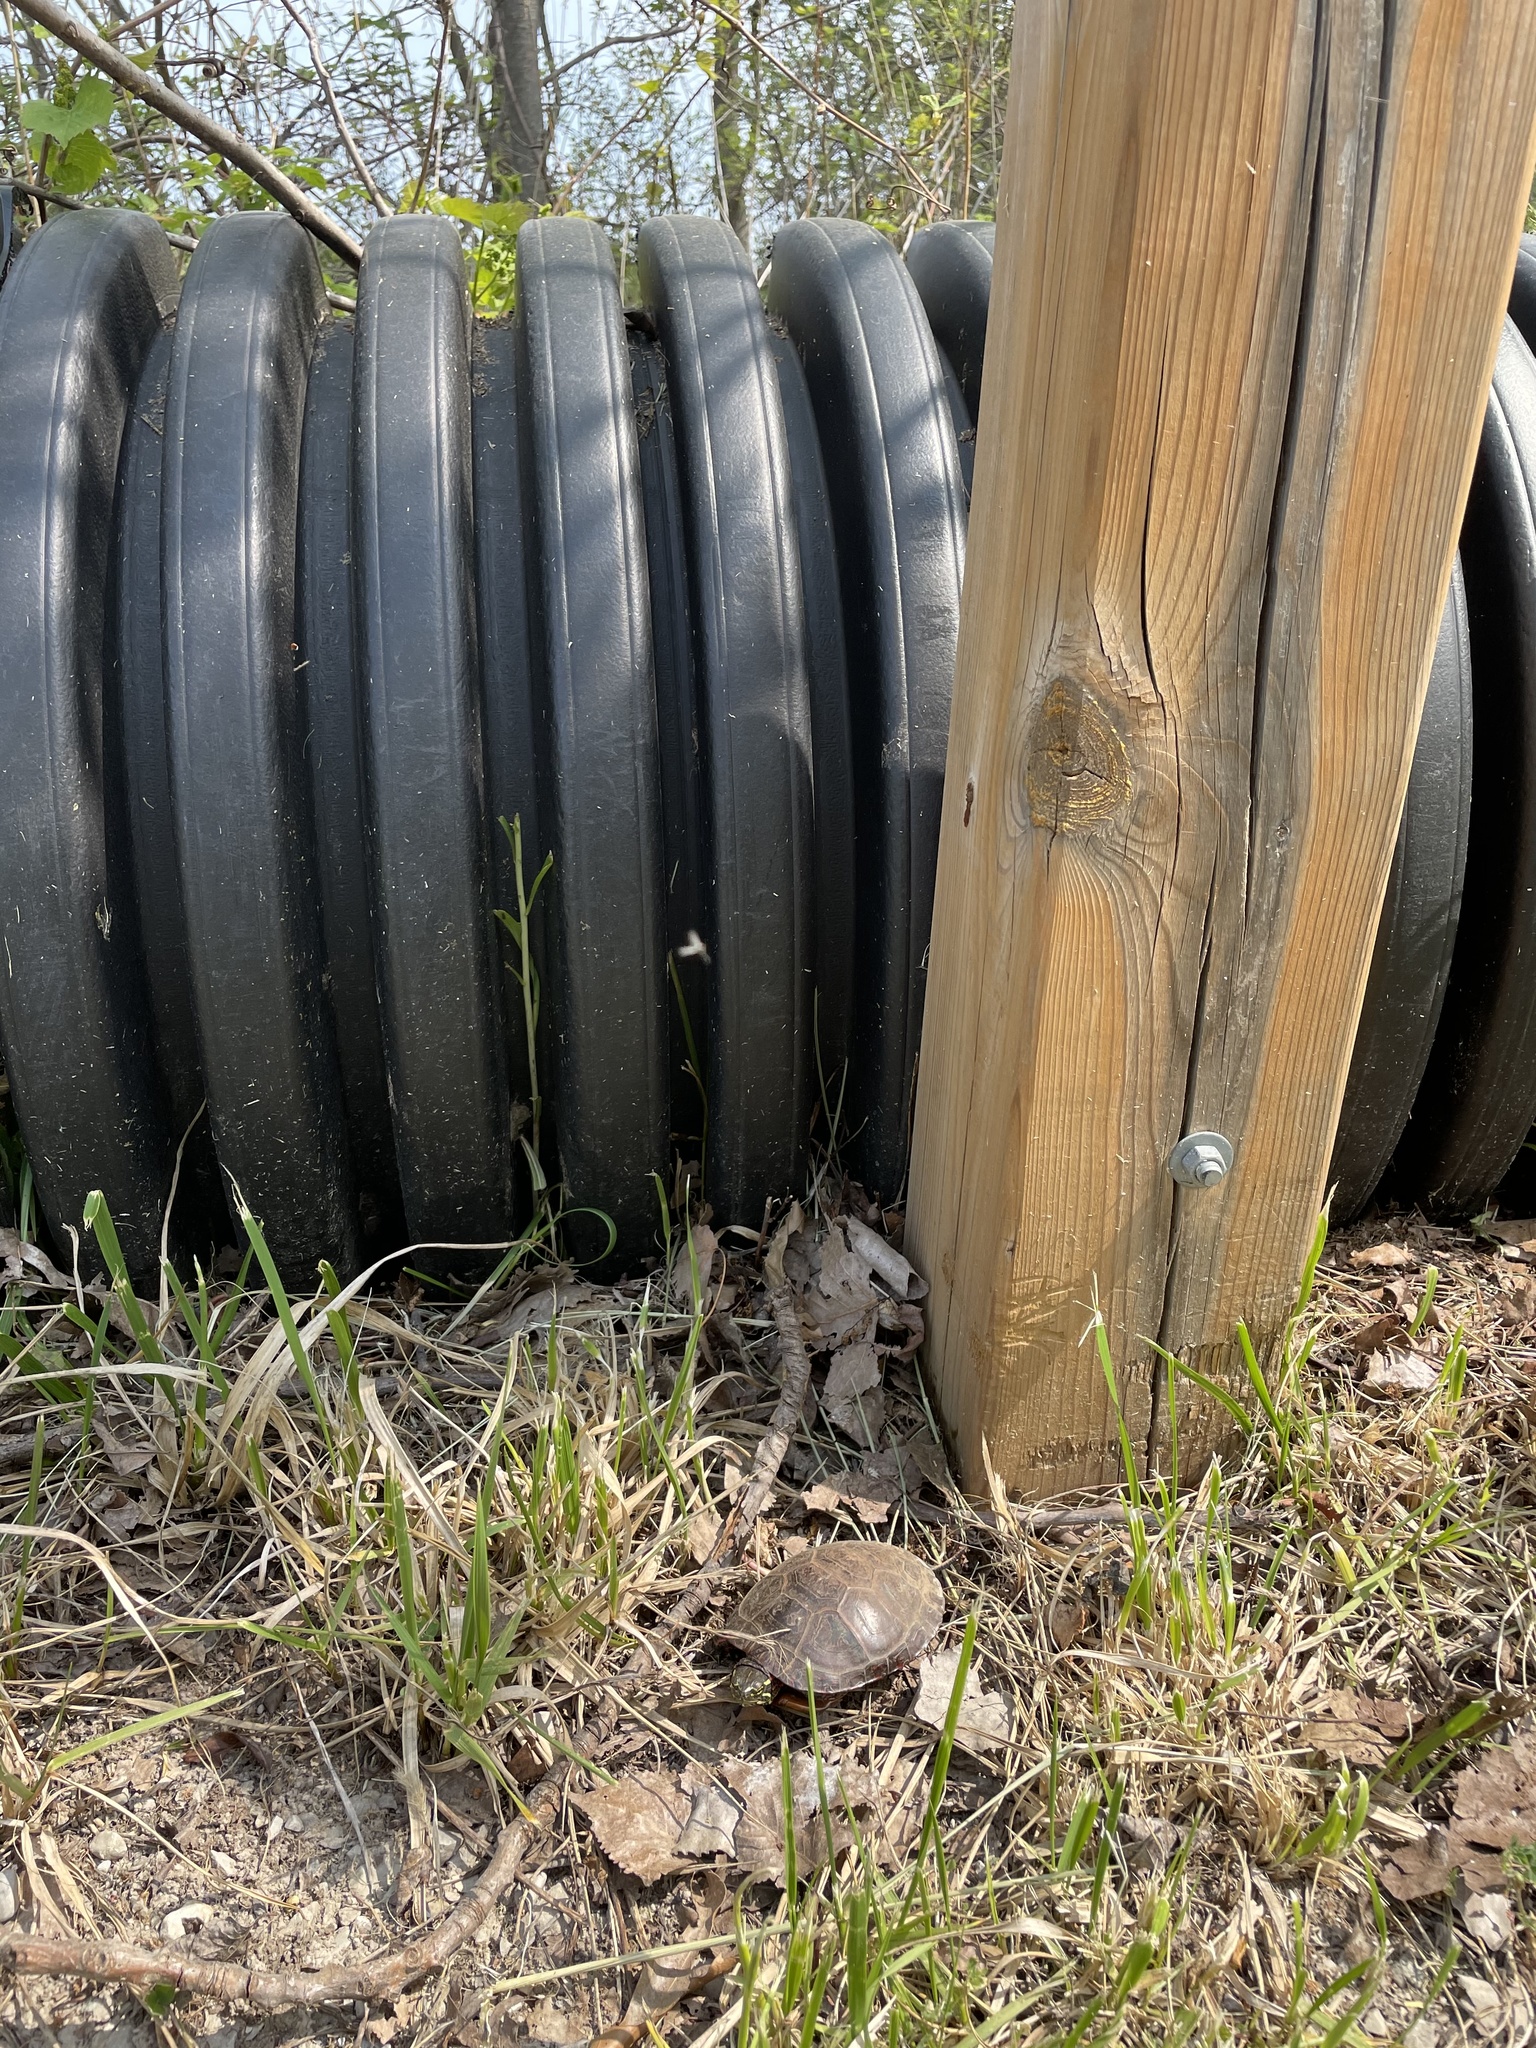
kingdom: Animalia
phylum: Chordata
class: Testudines
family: Emydidae
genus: Chrysemys
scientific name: Chrysemys picta
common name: Painted turtle
